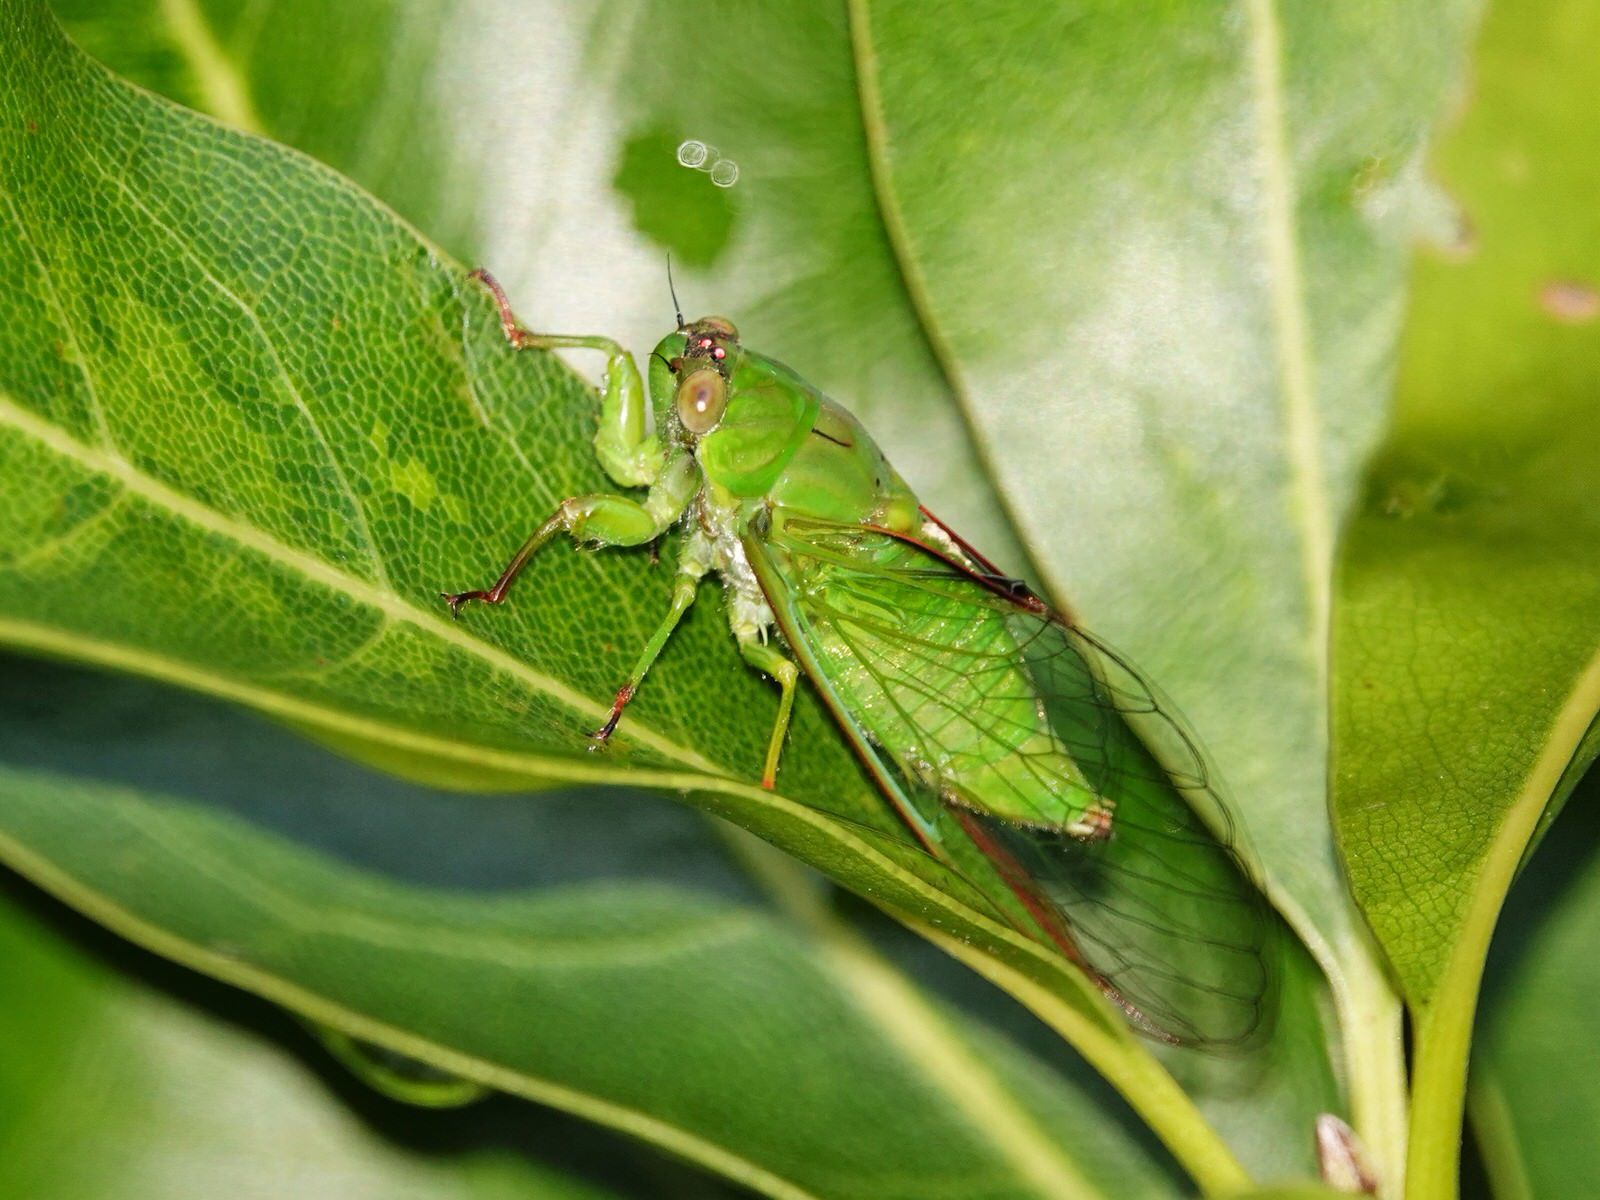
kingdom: Animalia
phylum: Arthropoda
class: Insecta
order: Hemiptera
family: Cicadidae
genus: Kikihia
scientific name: Kikihia ochrina
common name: April green cicada
